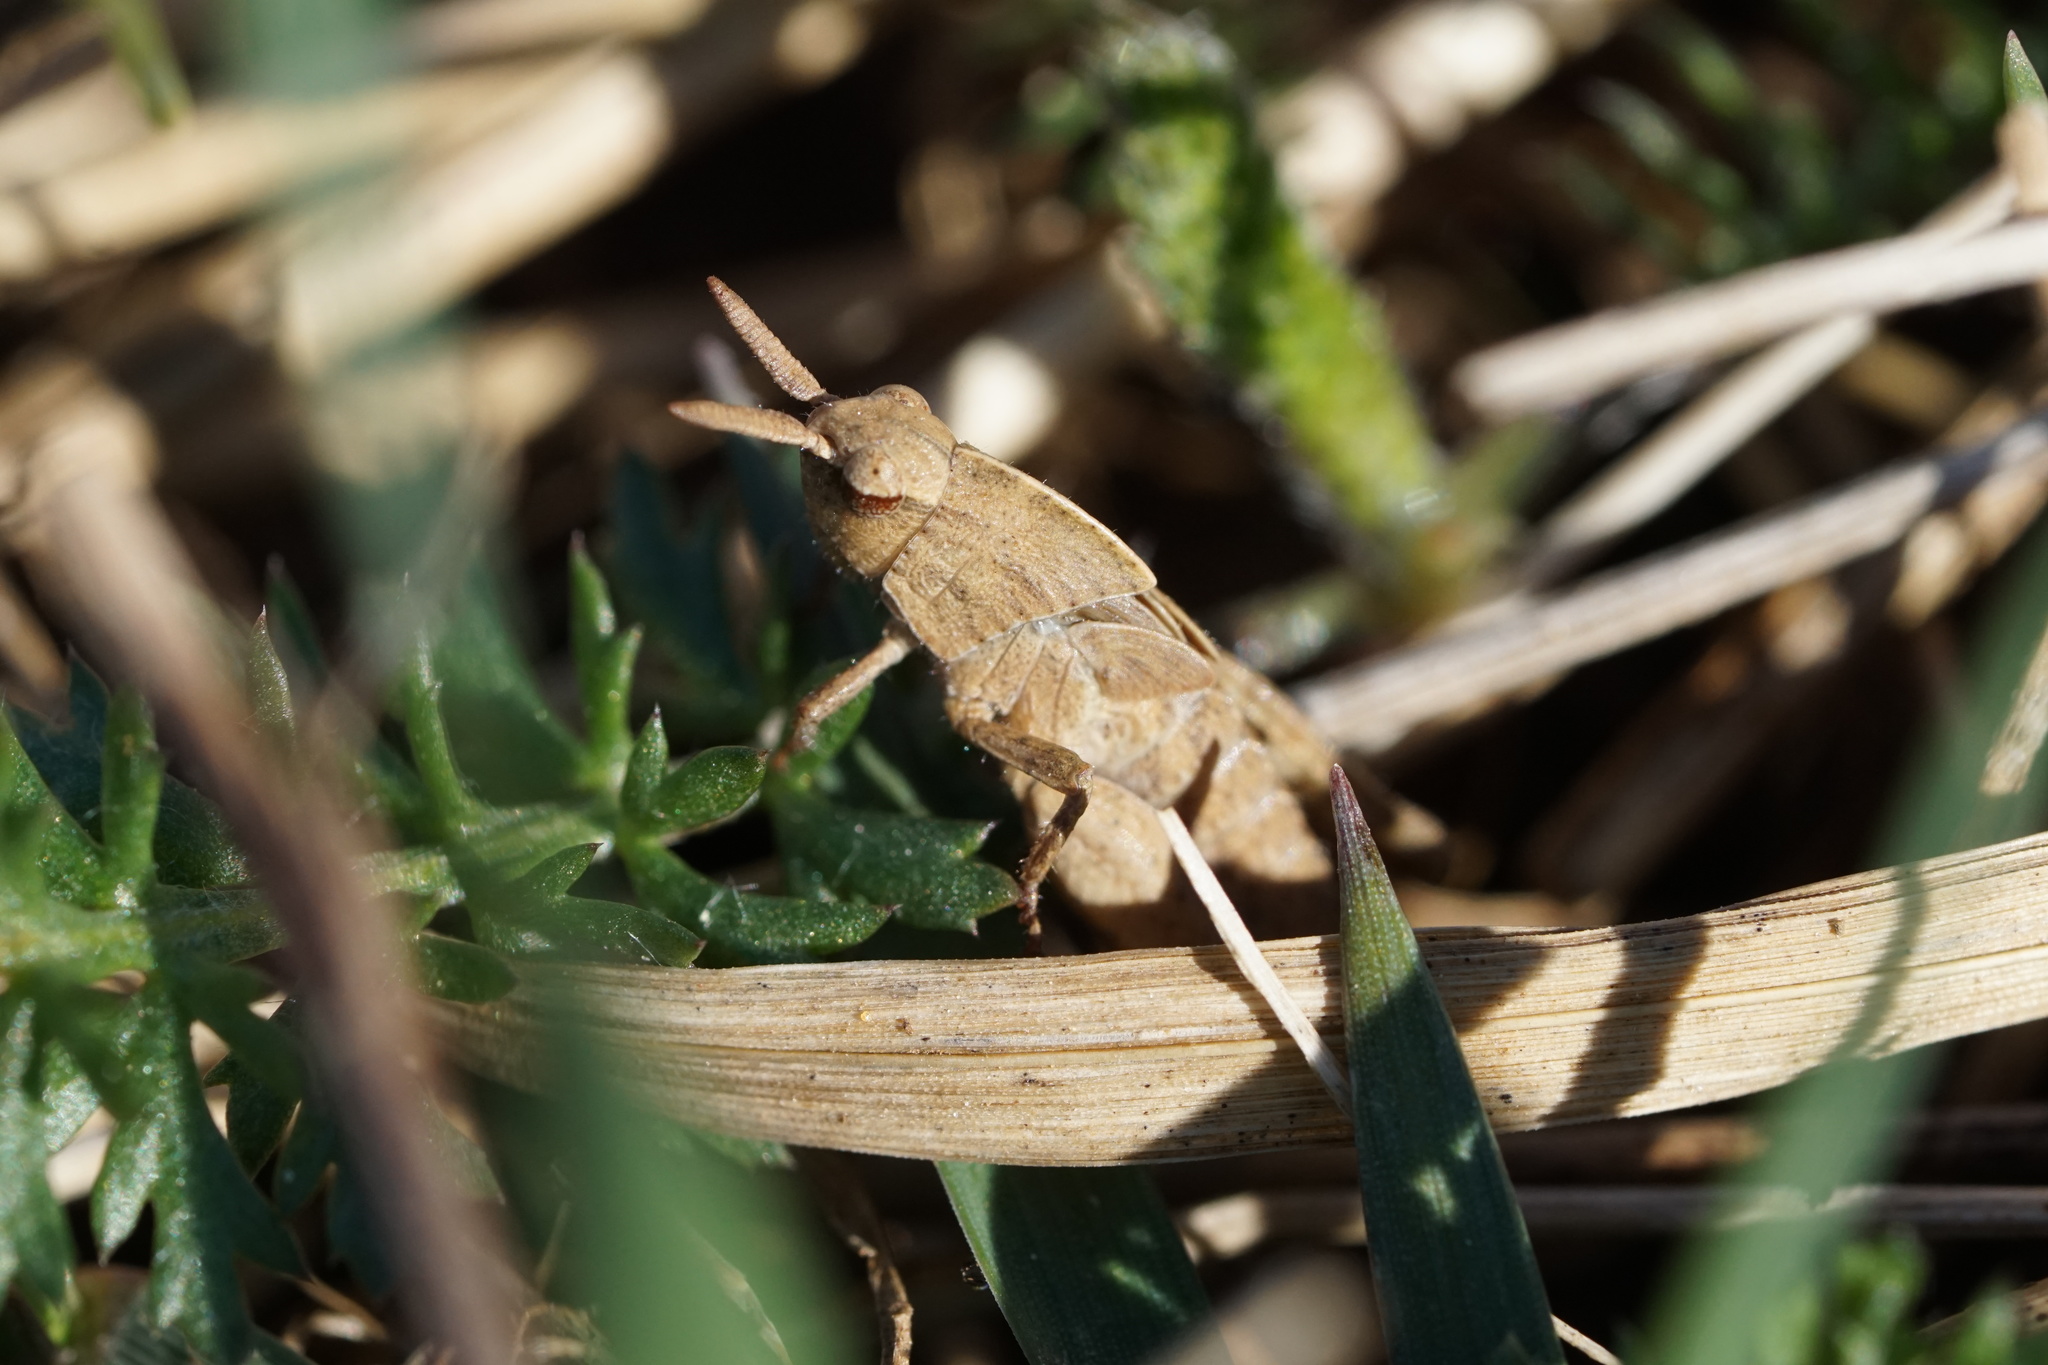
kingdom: Animalia
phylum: Arthropoda
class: Insecta
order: Orthoptera
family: Acrididae
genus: Chortophaga
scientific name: Chortophaga viridifasciata
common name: Green-striped grasshopper
